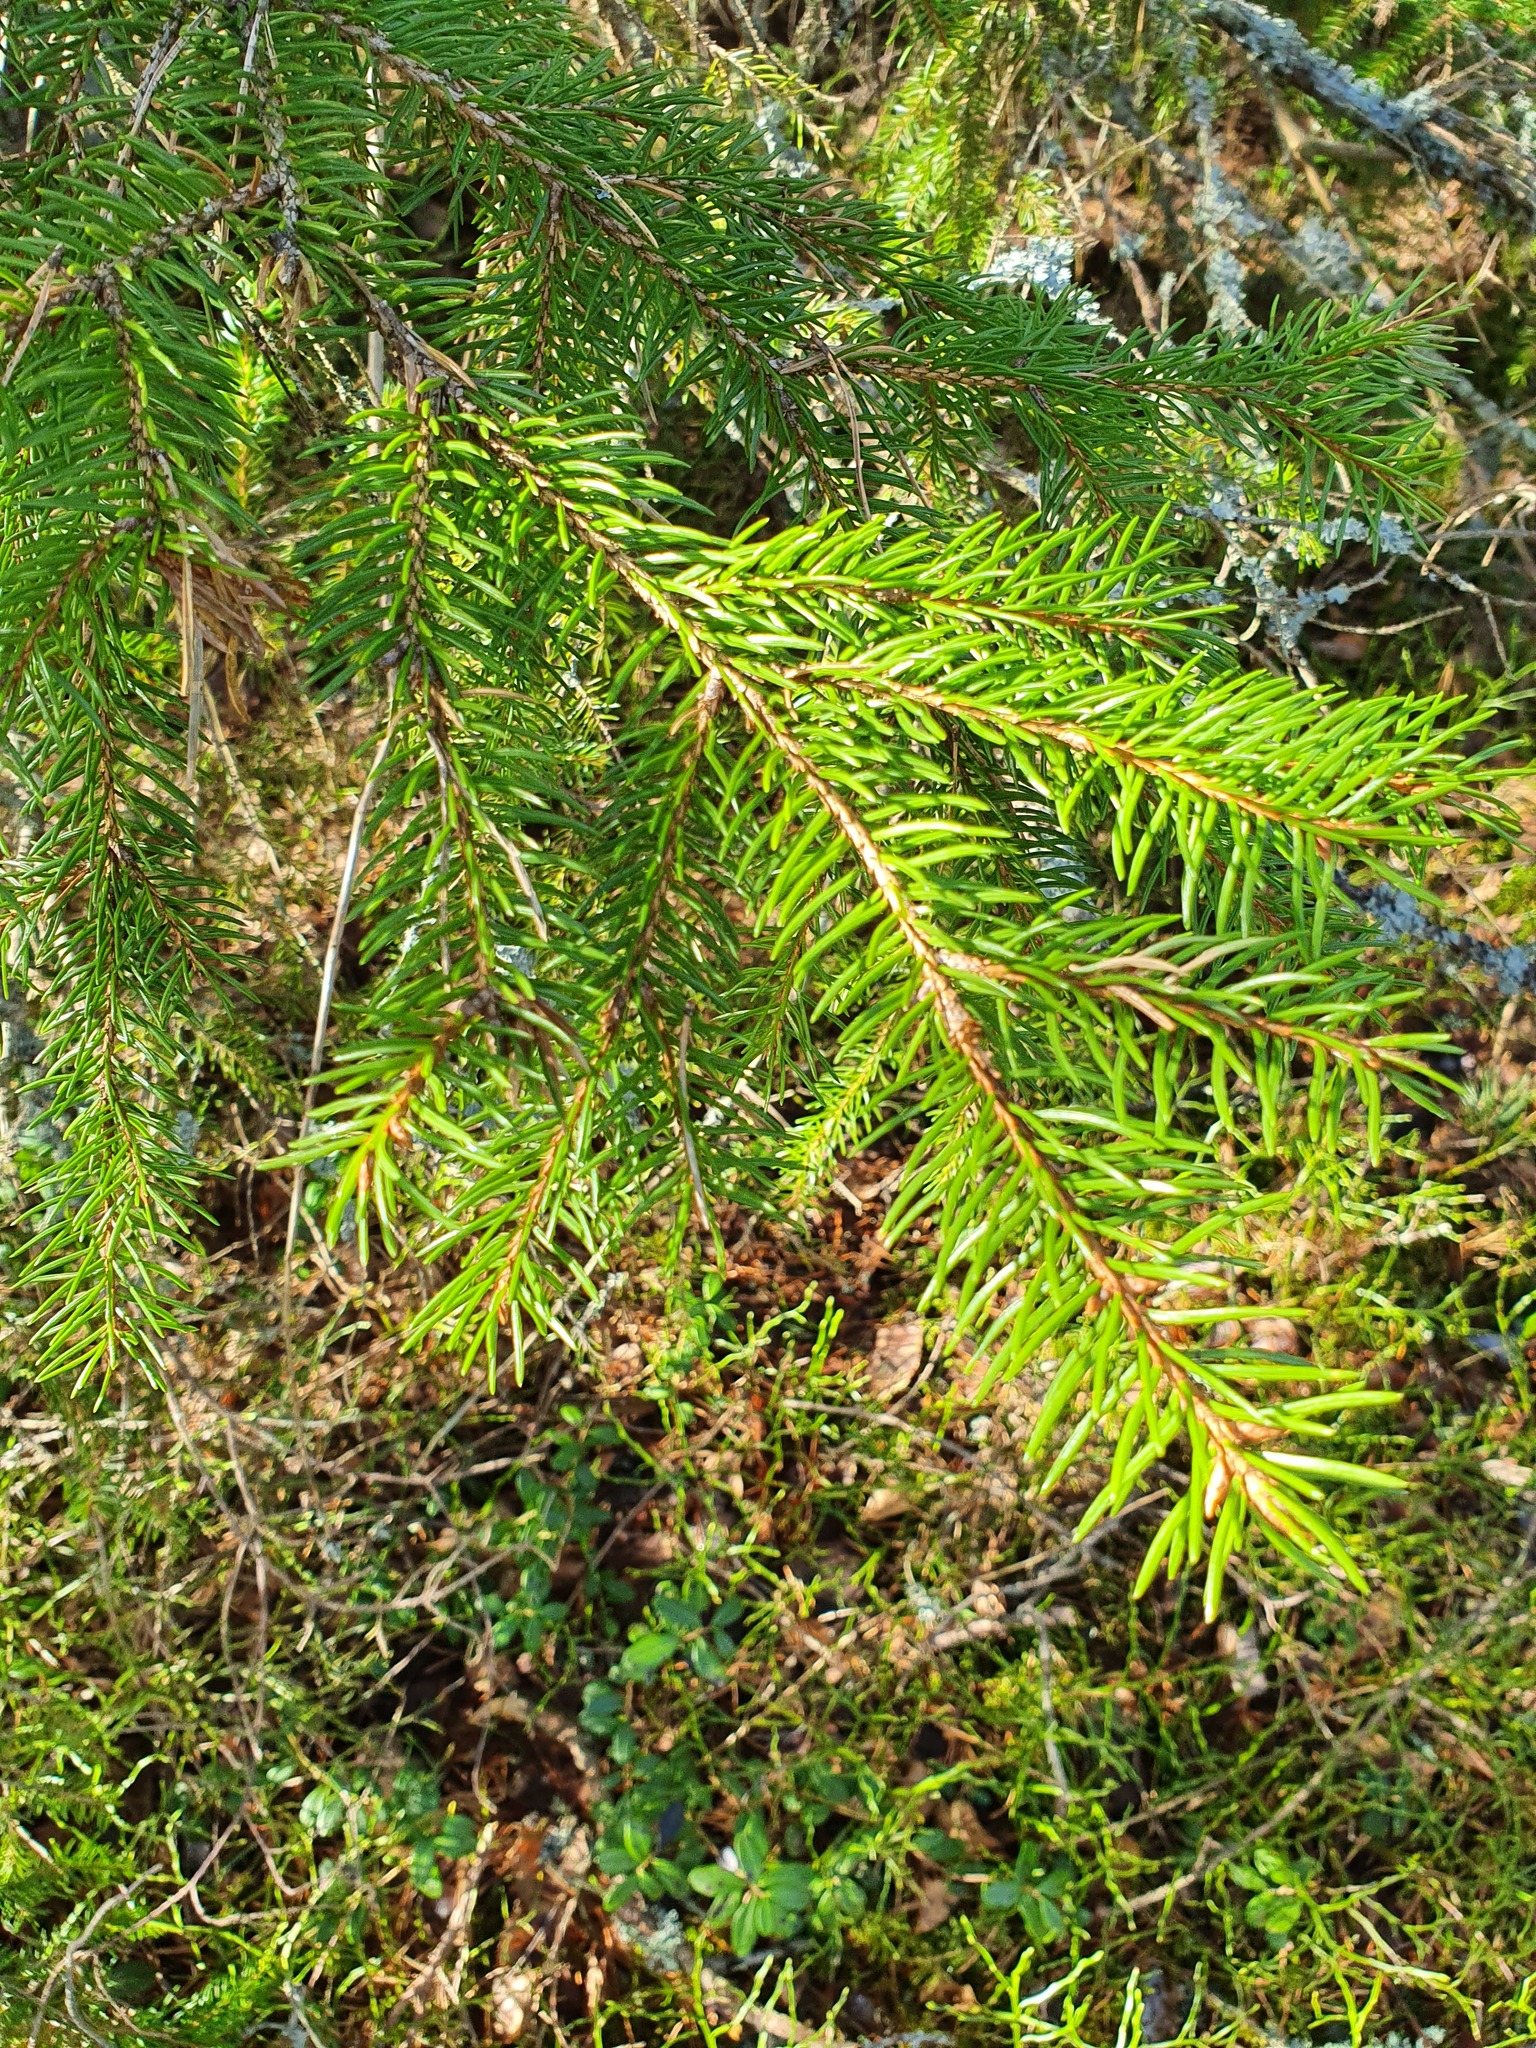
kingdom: Plantae
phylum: Tracheophyta
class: Pinopsida
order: Pinales
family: Pinaceae
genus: Picea
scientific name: Picea abies
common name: Norway spruce
